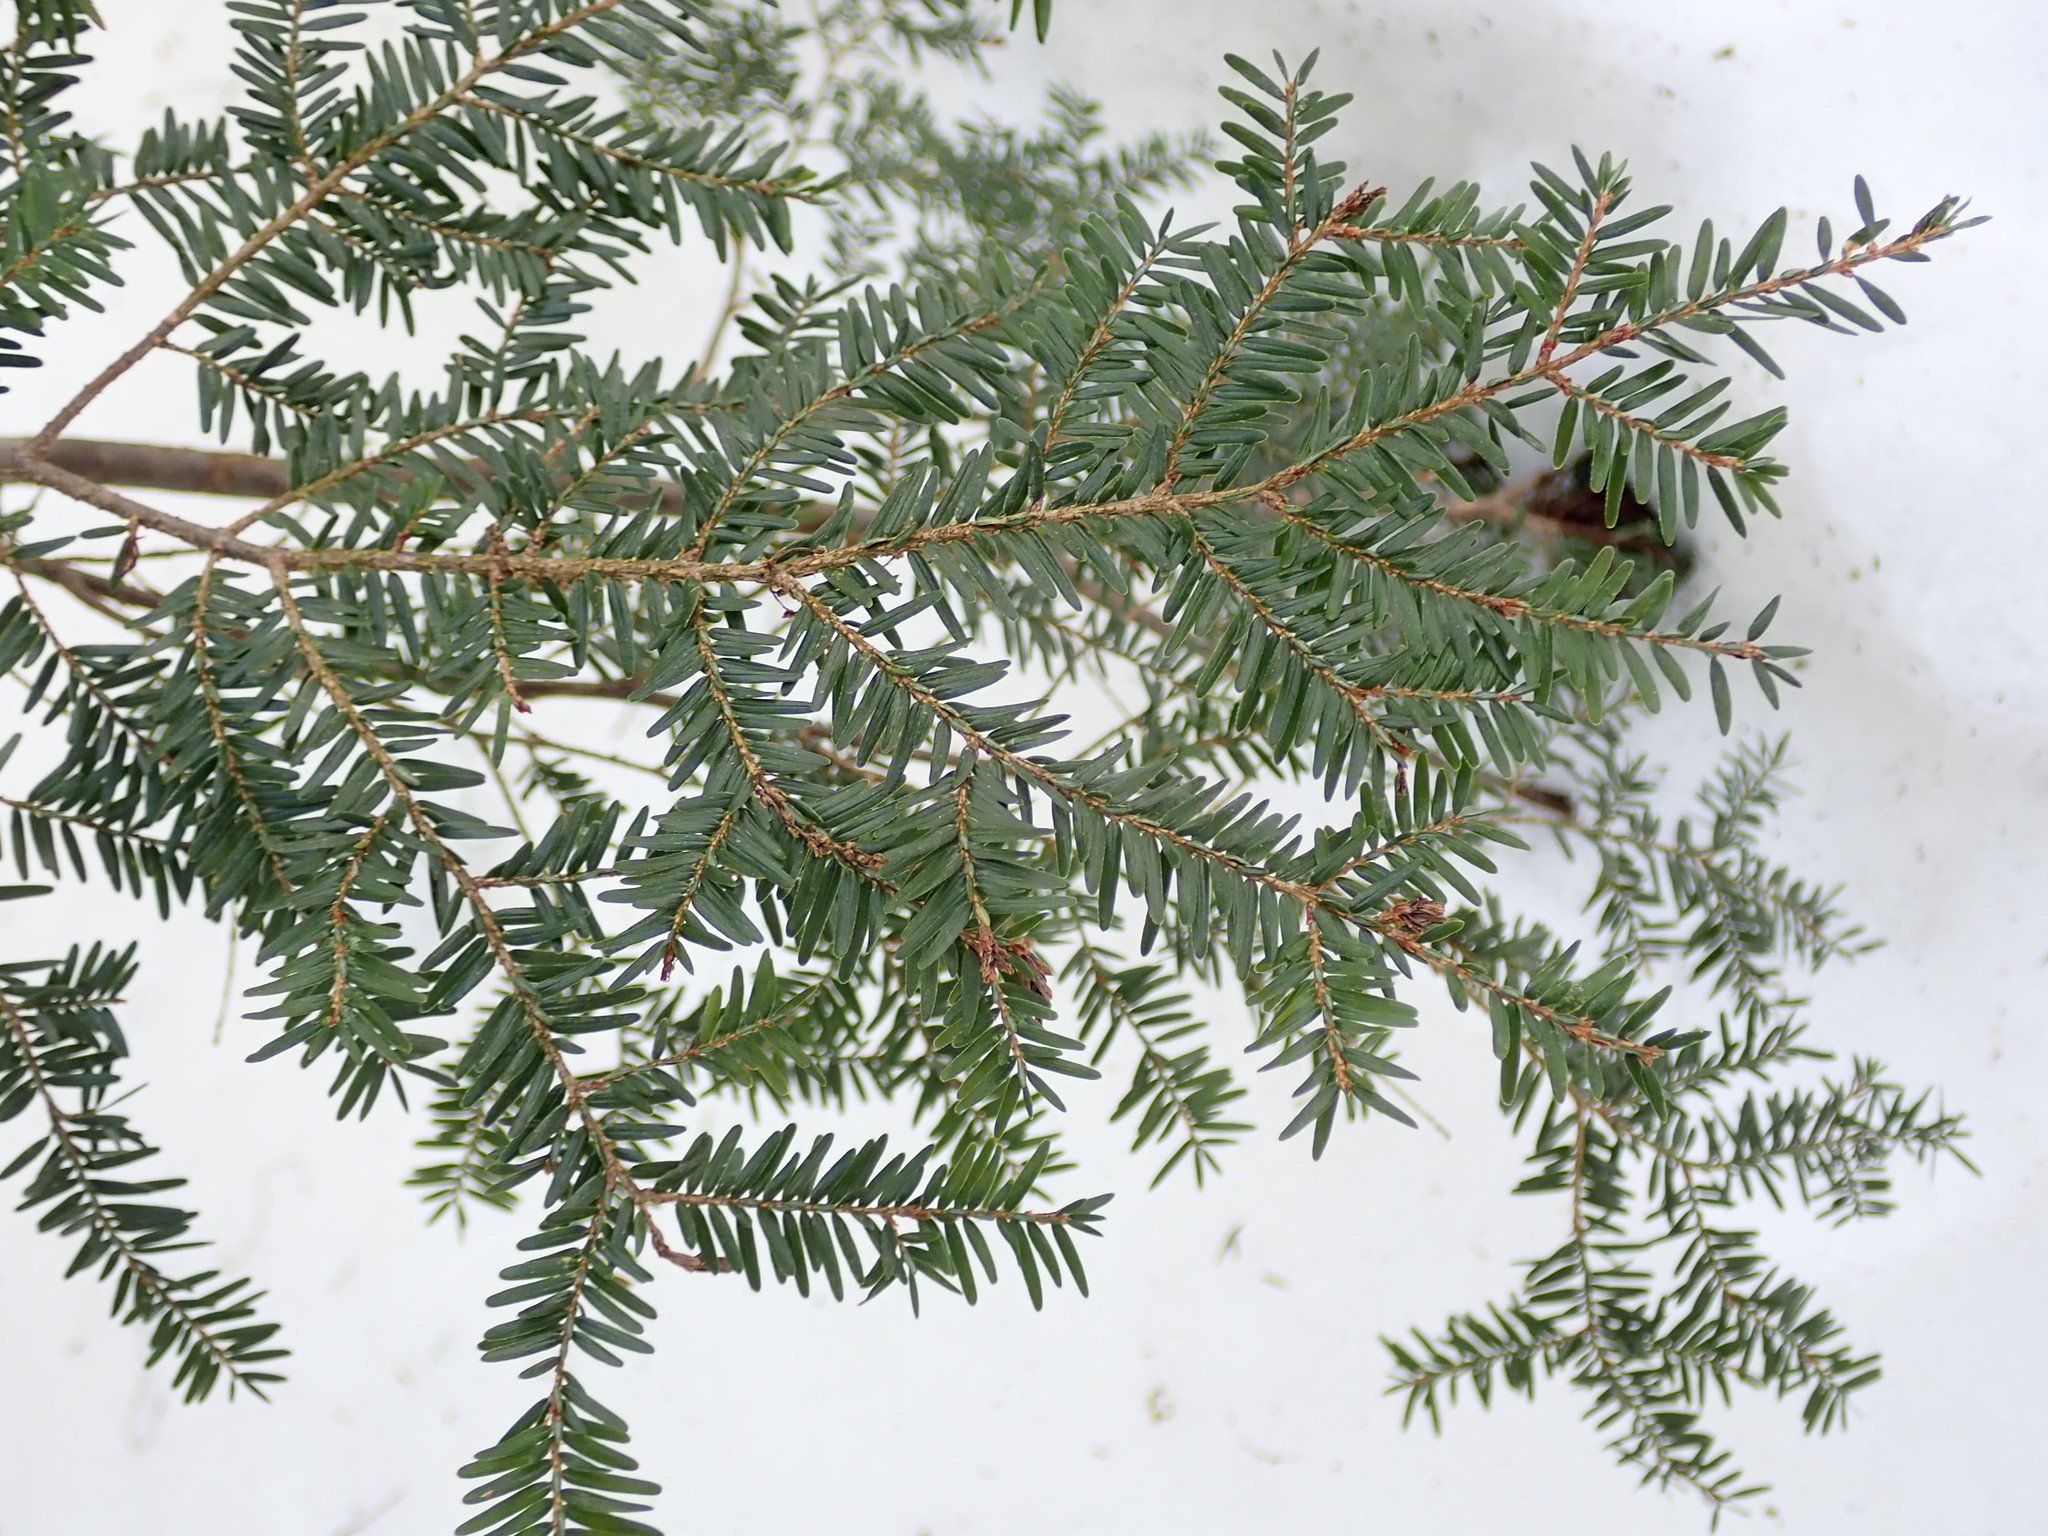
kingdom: Plantae
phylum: Tracheophyta
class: Pinopsida
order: Pinales
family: Pinaceae
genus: Tsuga
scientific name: Tsuga canadensis
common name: Eastern hemlock
